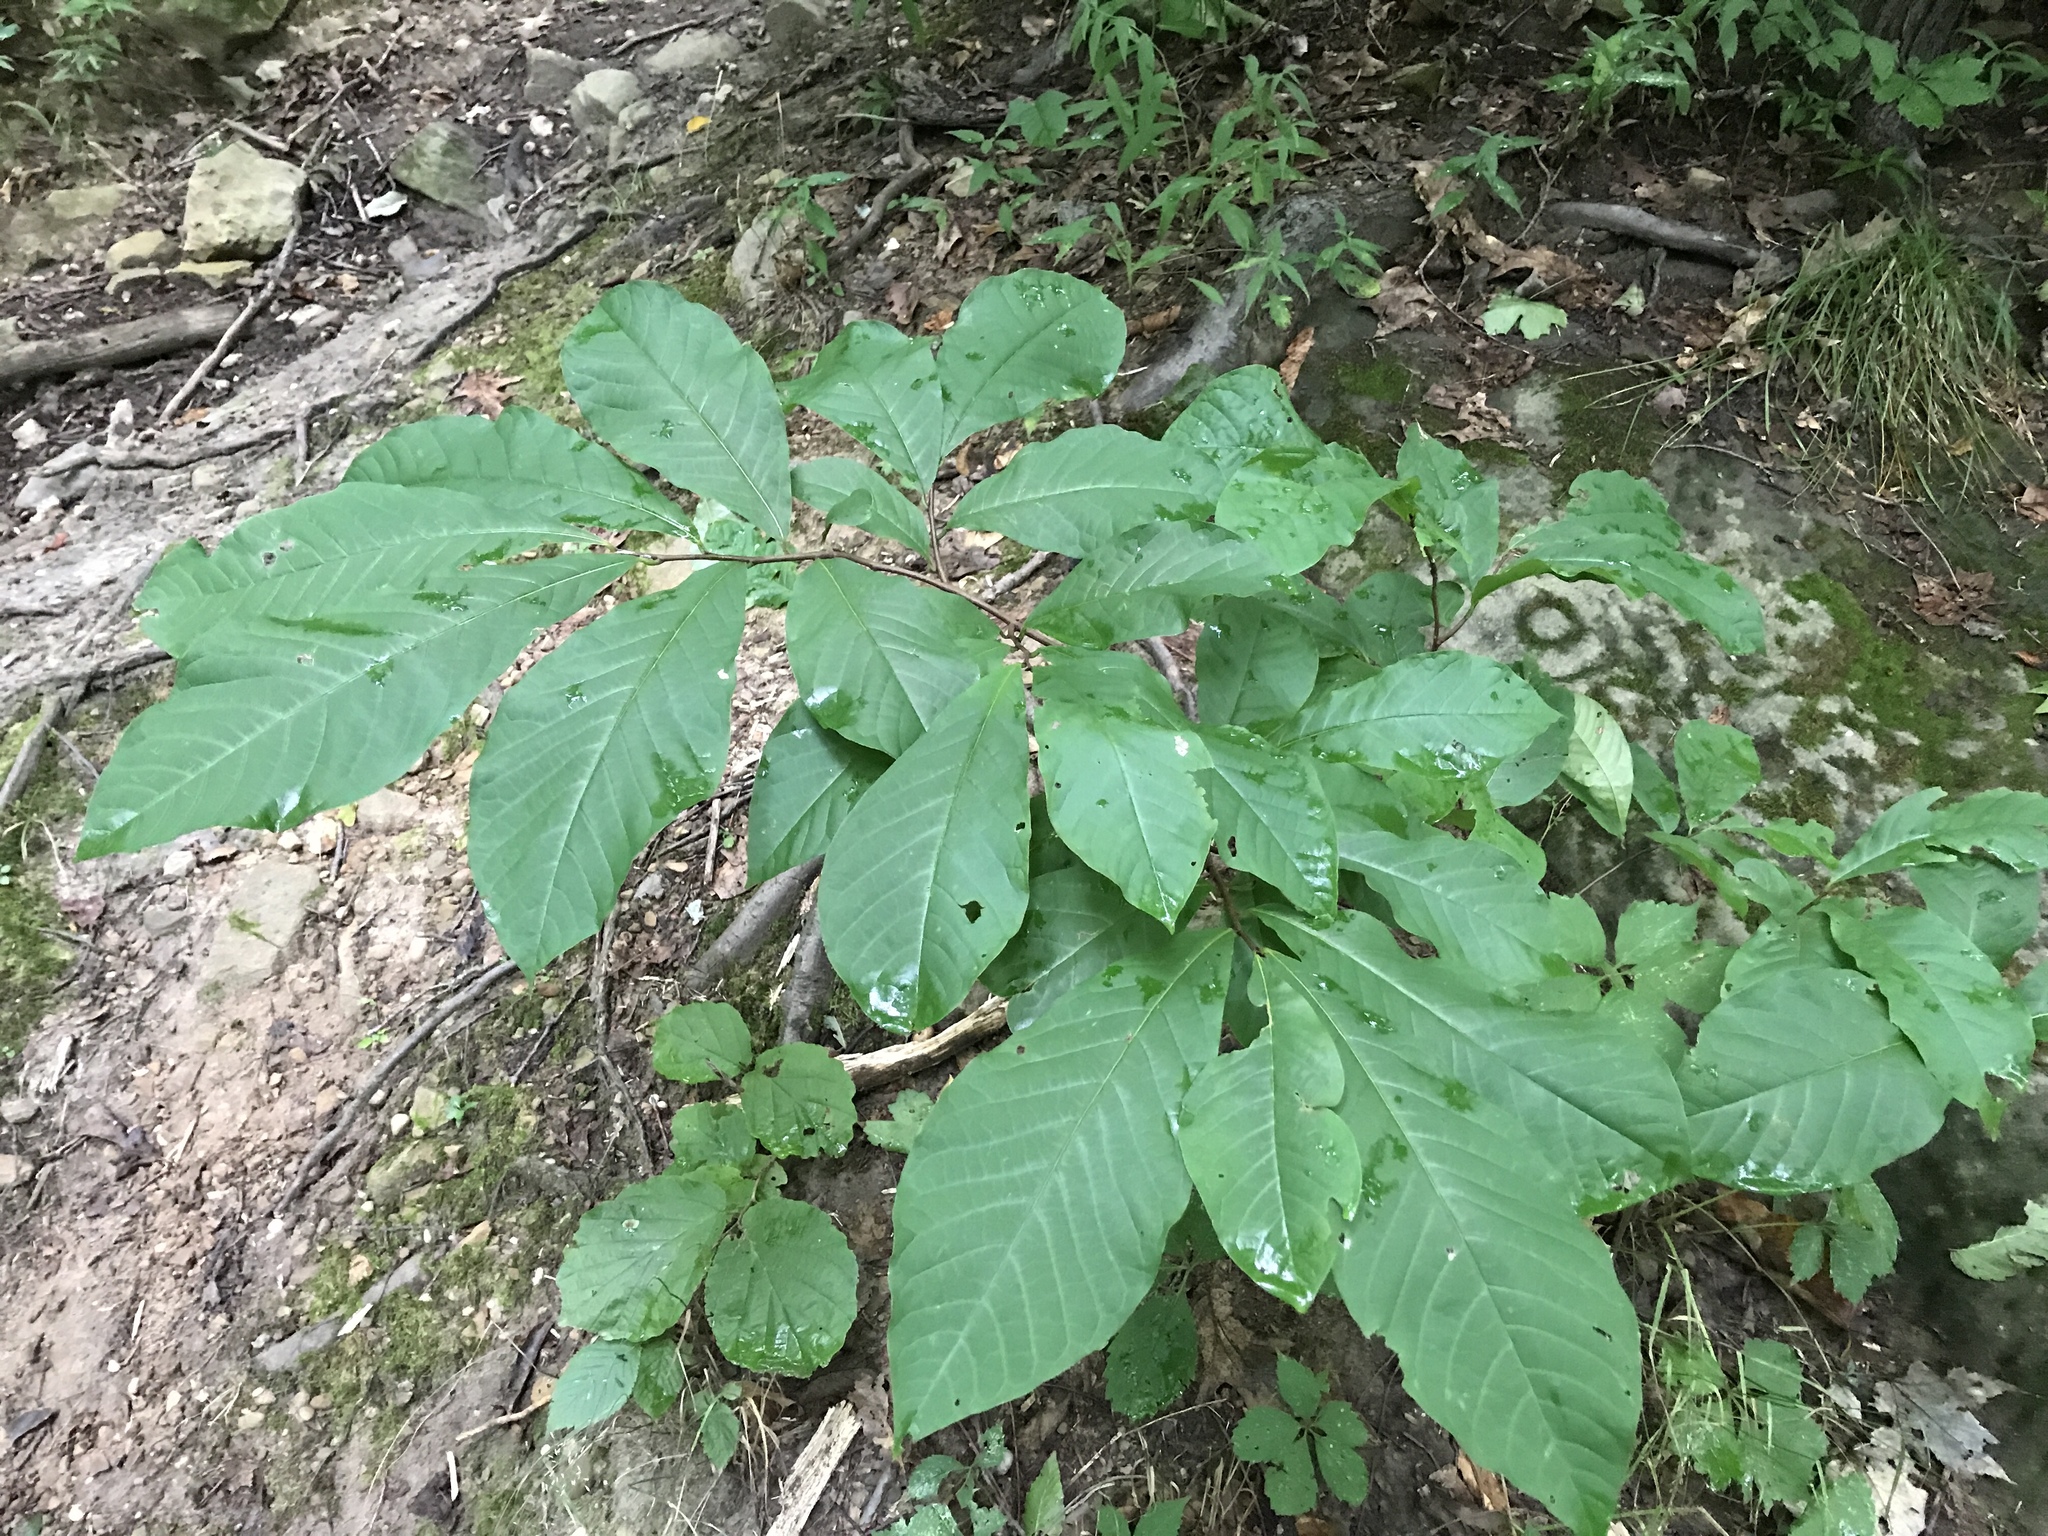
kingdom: Plantae
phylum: Tracheophyta
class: Magnoliopsida
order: Magnoliales
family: Annonaceae
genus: Asimina
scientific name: Asimina triloba
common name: Dog-banana
